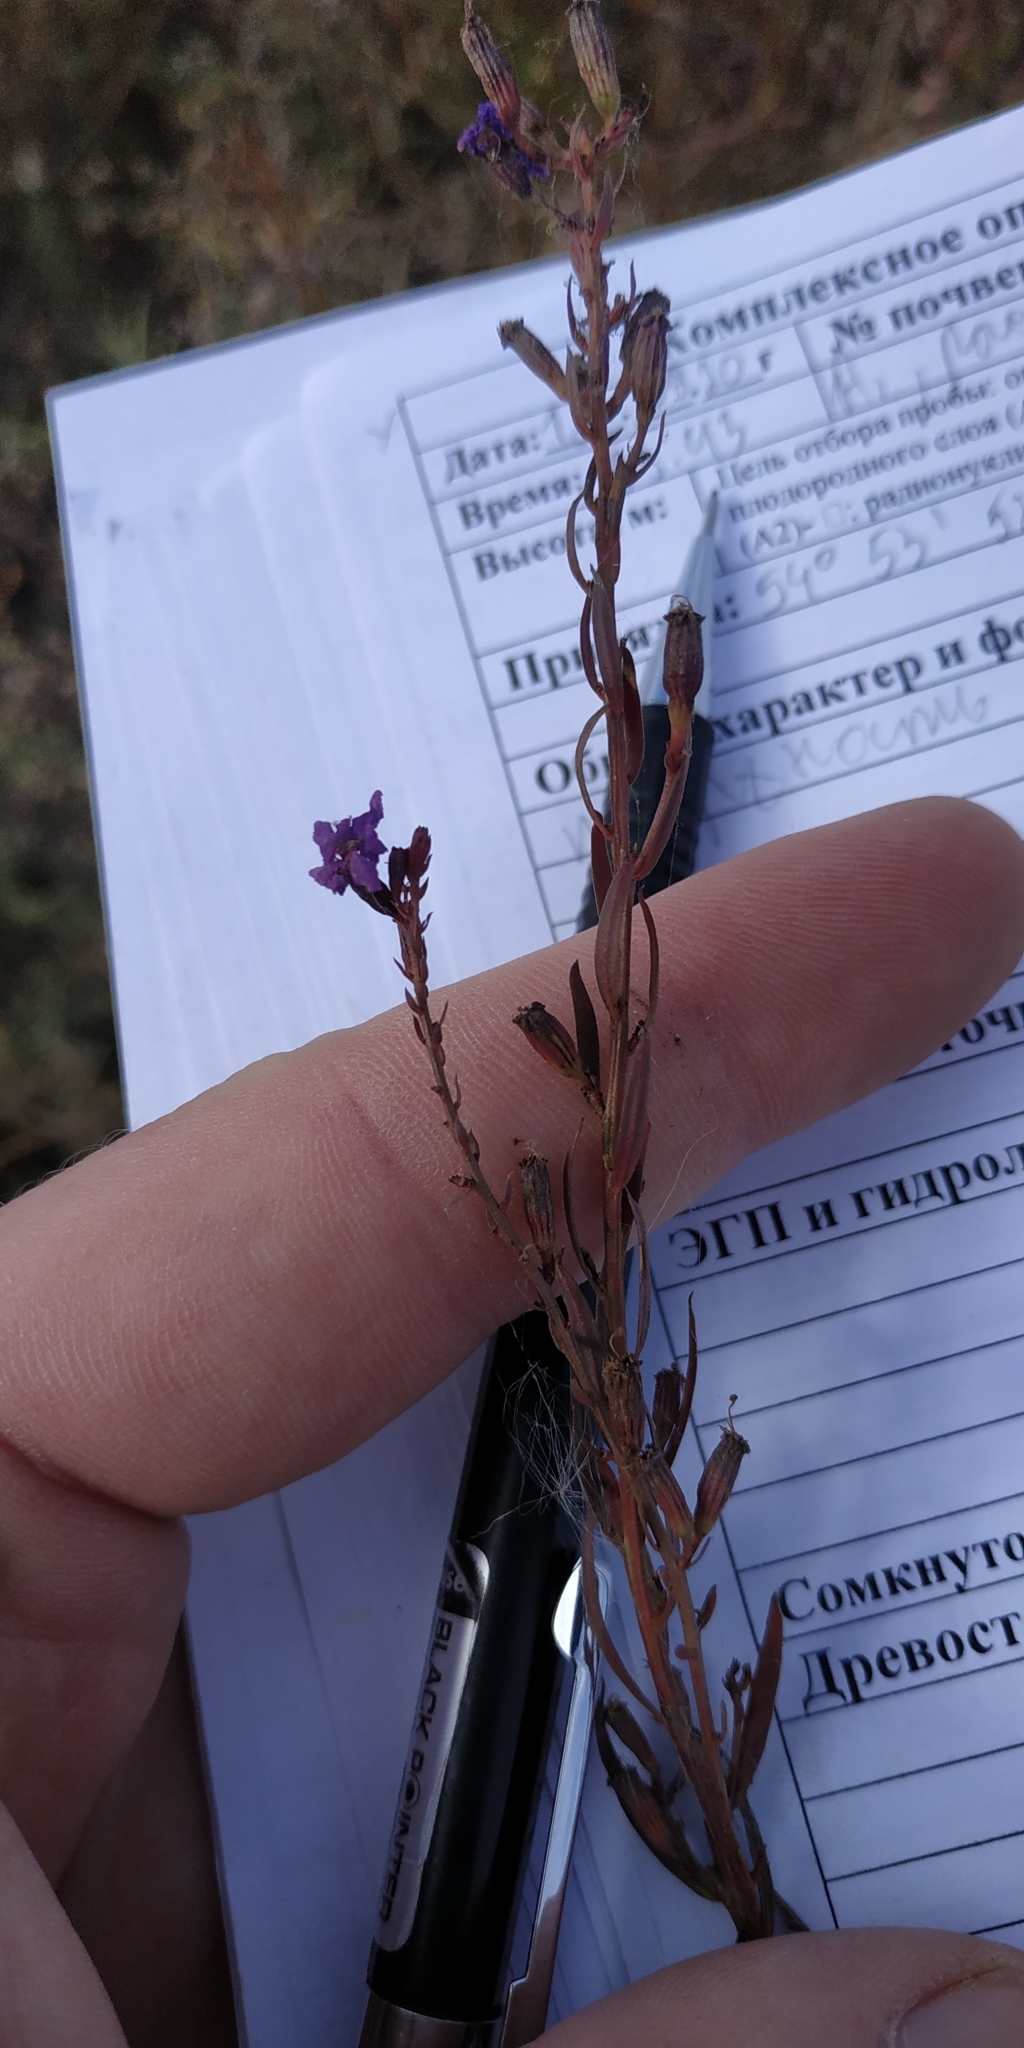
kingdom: Plantae
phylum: Tracheophyta
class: Magnoliopsida
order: Myrtales
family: Lythraceae
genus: Lythrum
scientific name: Lythrum salicaria
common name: Purple loosestrife
